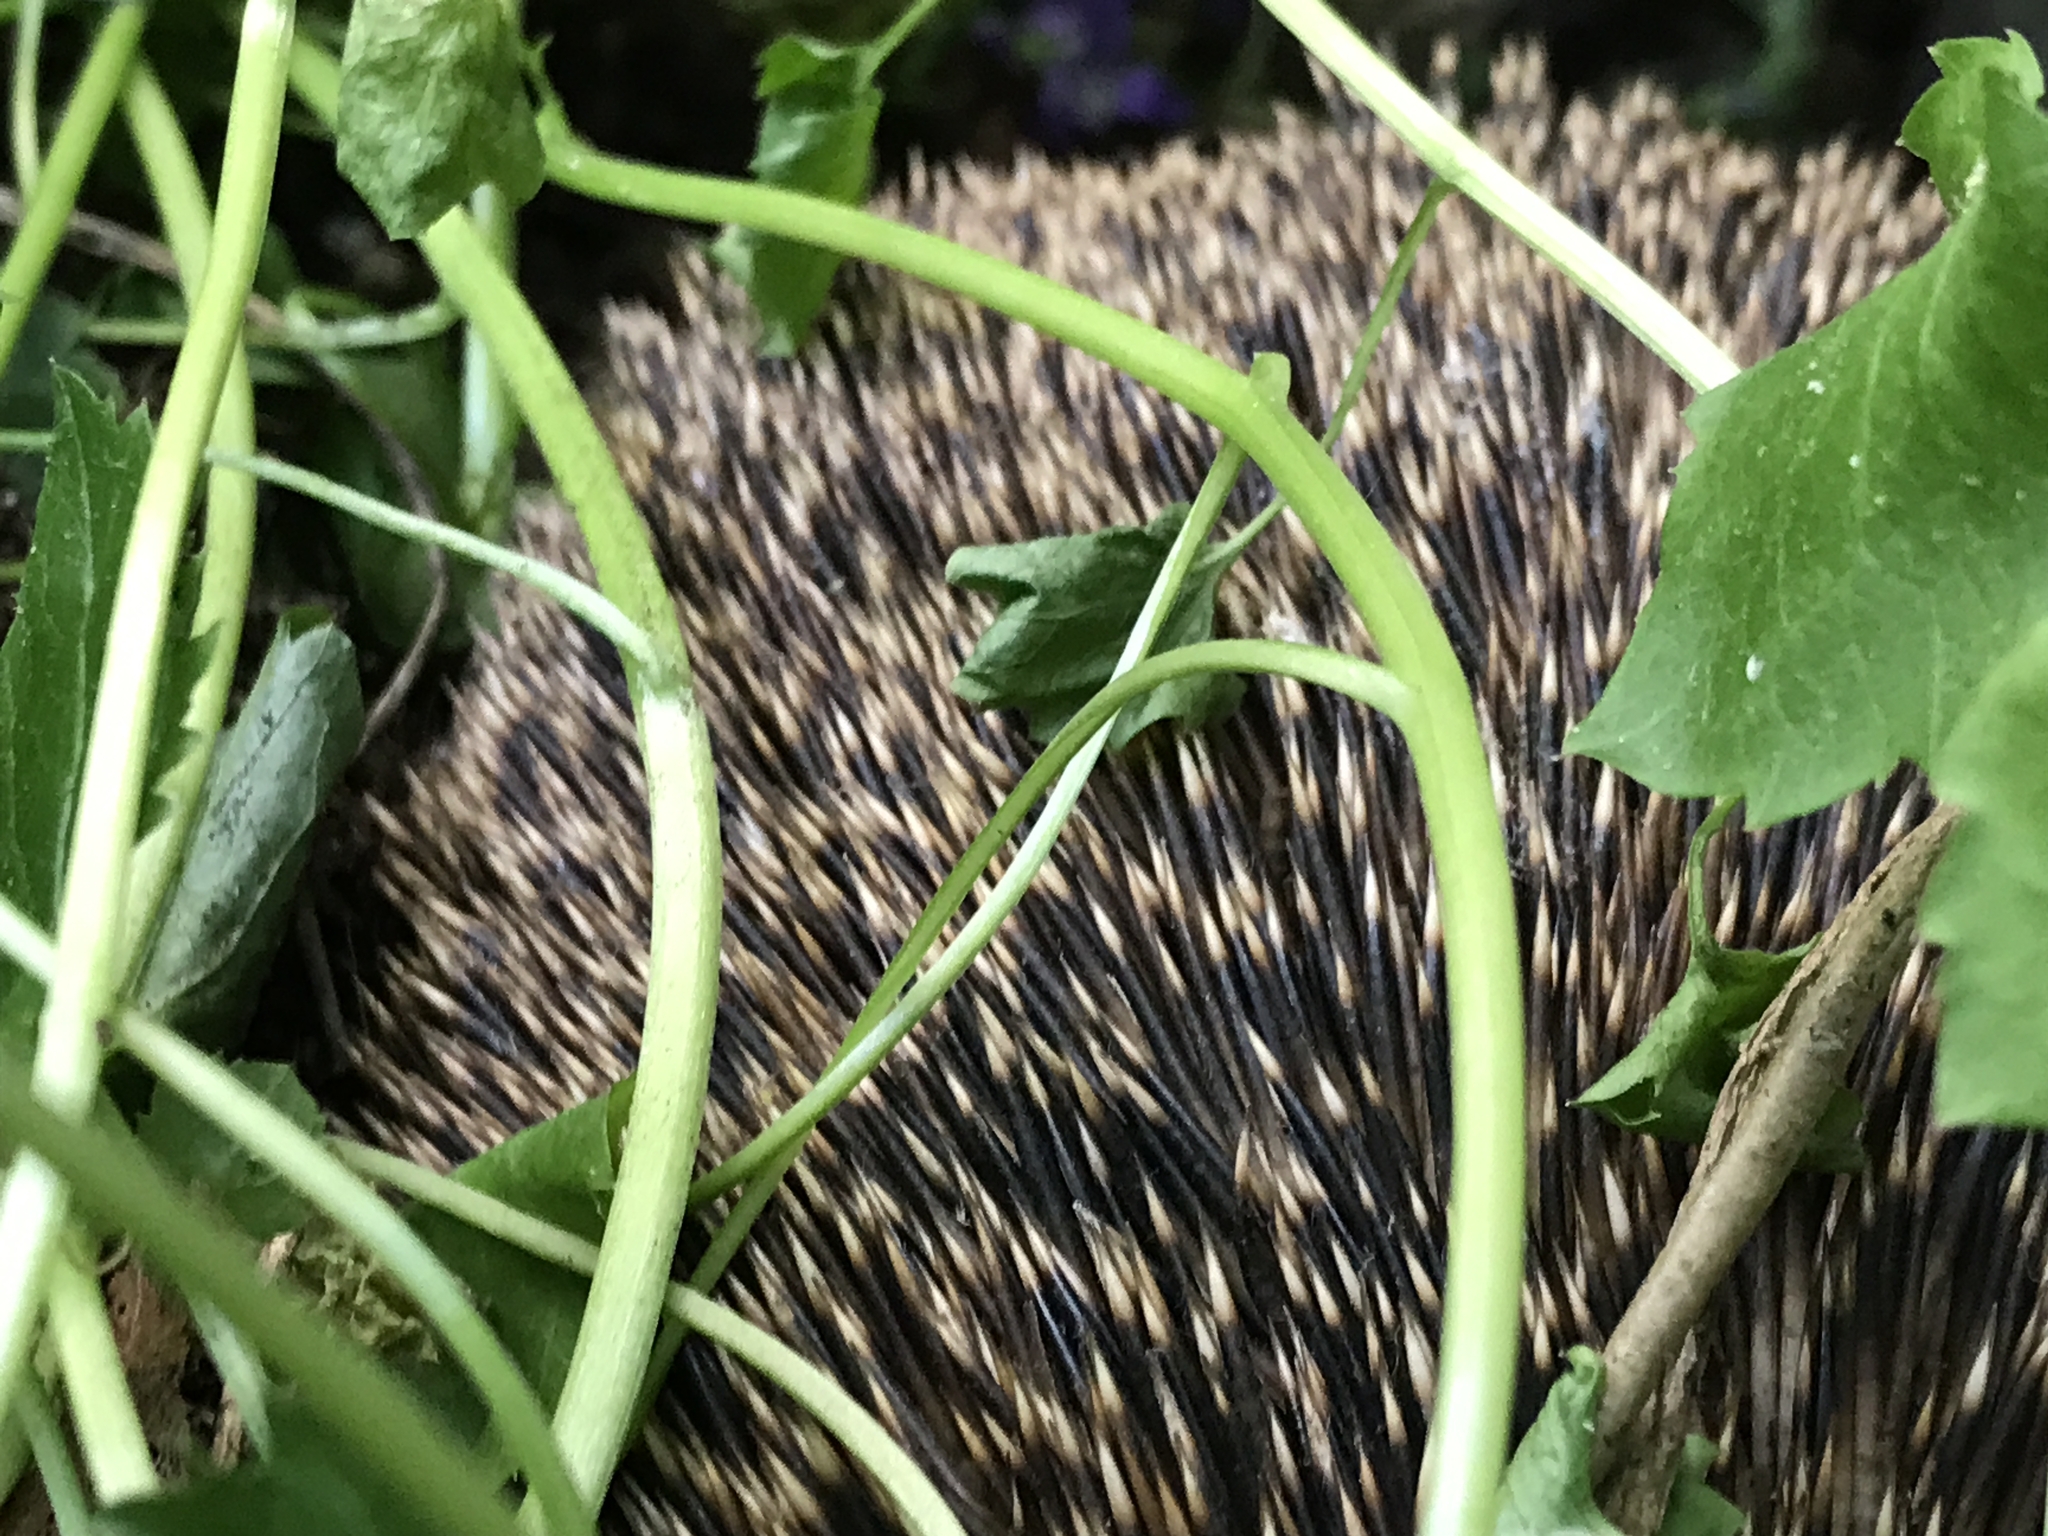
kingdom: Animalia
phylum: Chordata
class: Mammalia
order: Erinaceomorpha
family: Erinaceidae
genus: Erinaceus
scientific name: Erinaceus europaeus
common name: West european hedgehog
